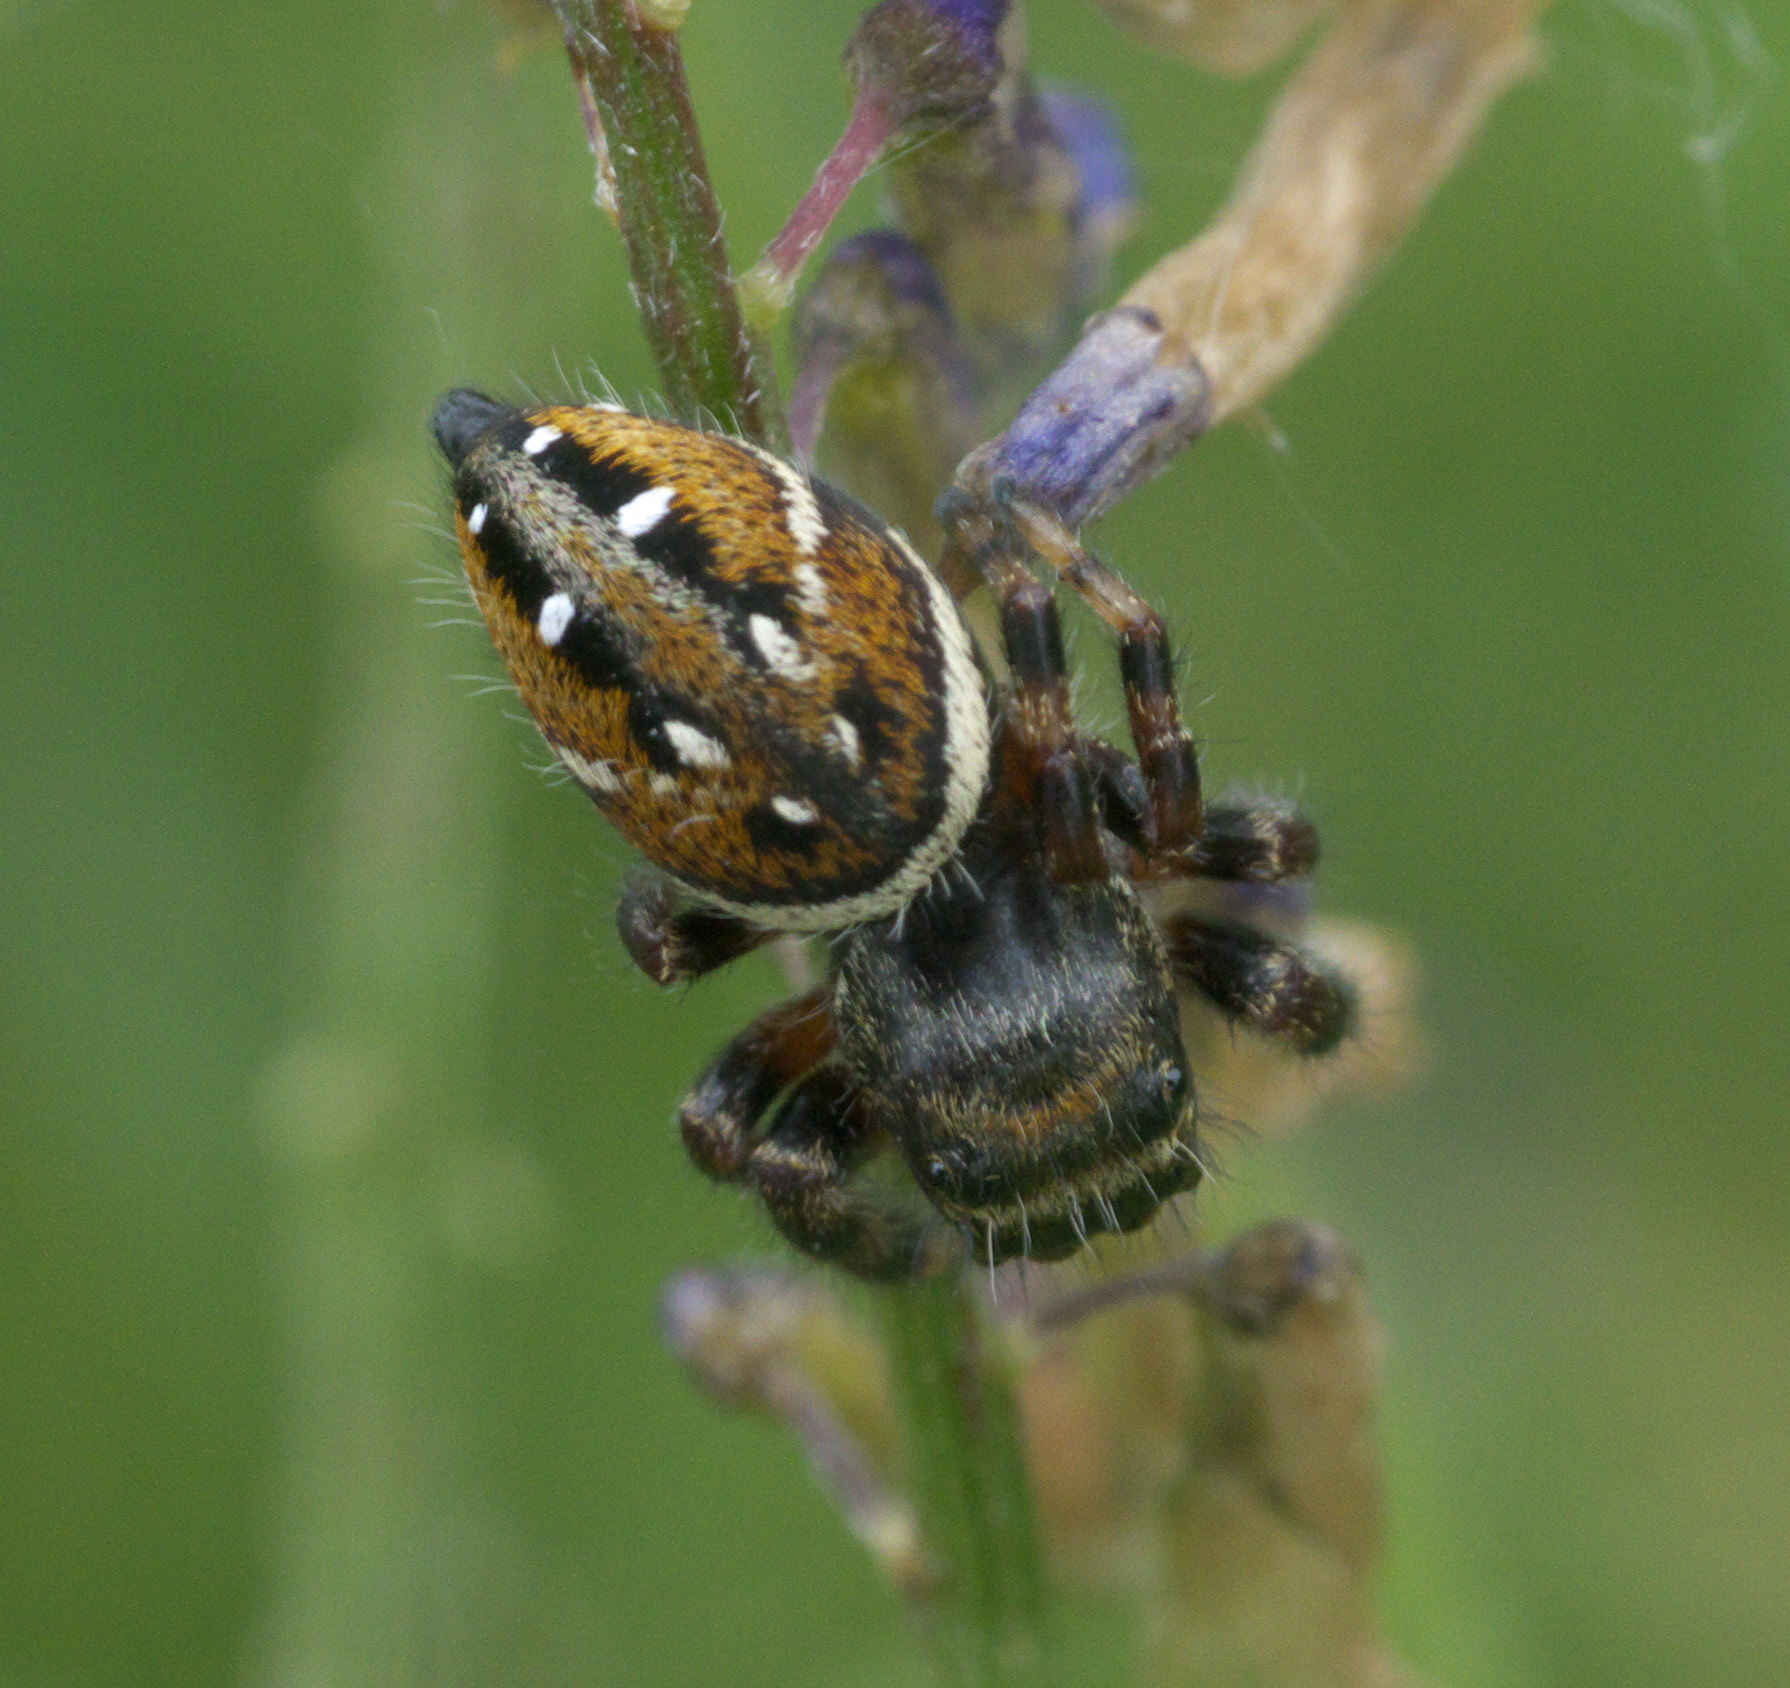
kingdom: Animalia
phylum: Arthropoda
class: Arachnida
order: Araneae
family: Salticidae
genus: Phidippus
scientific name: Phidippus clarus
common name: Brilliant jumping spider
